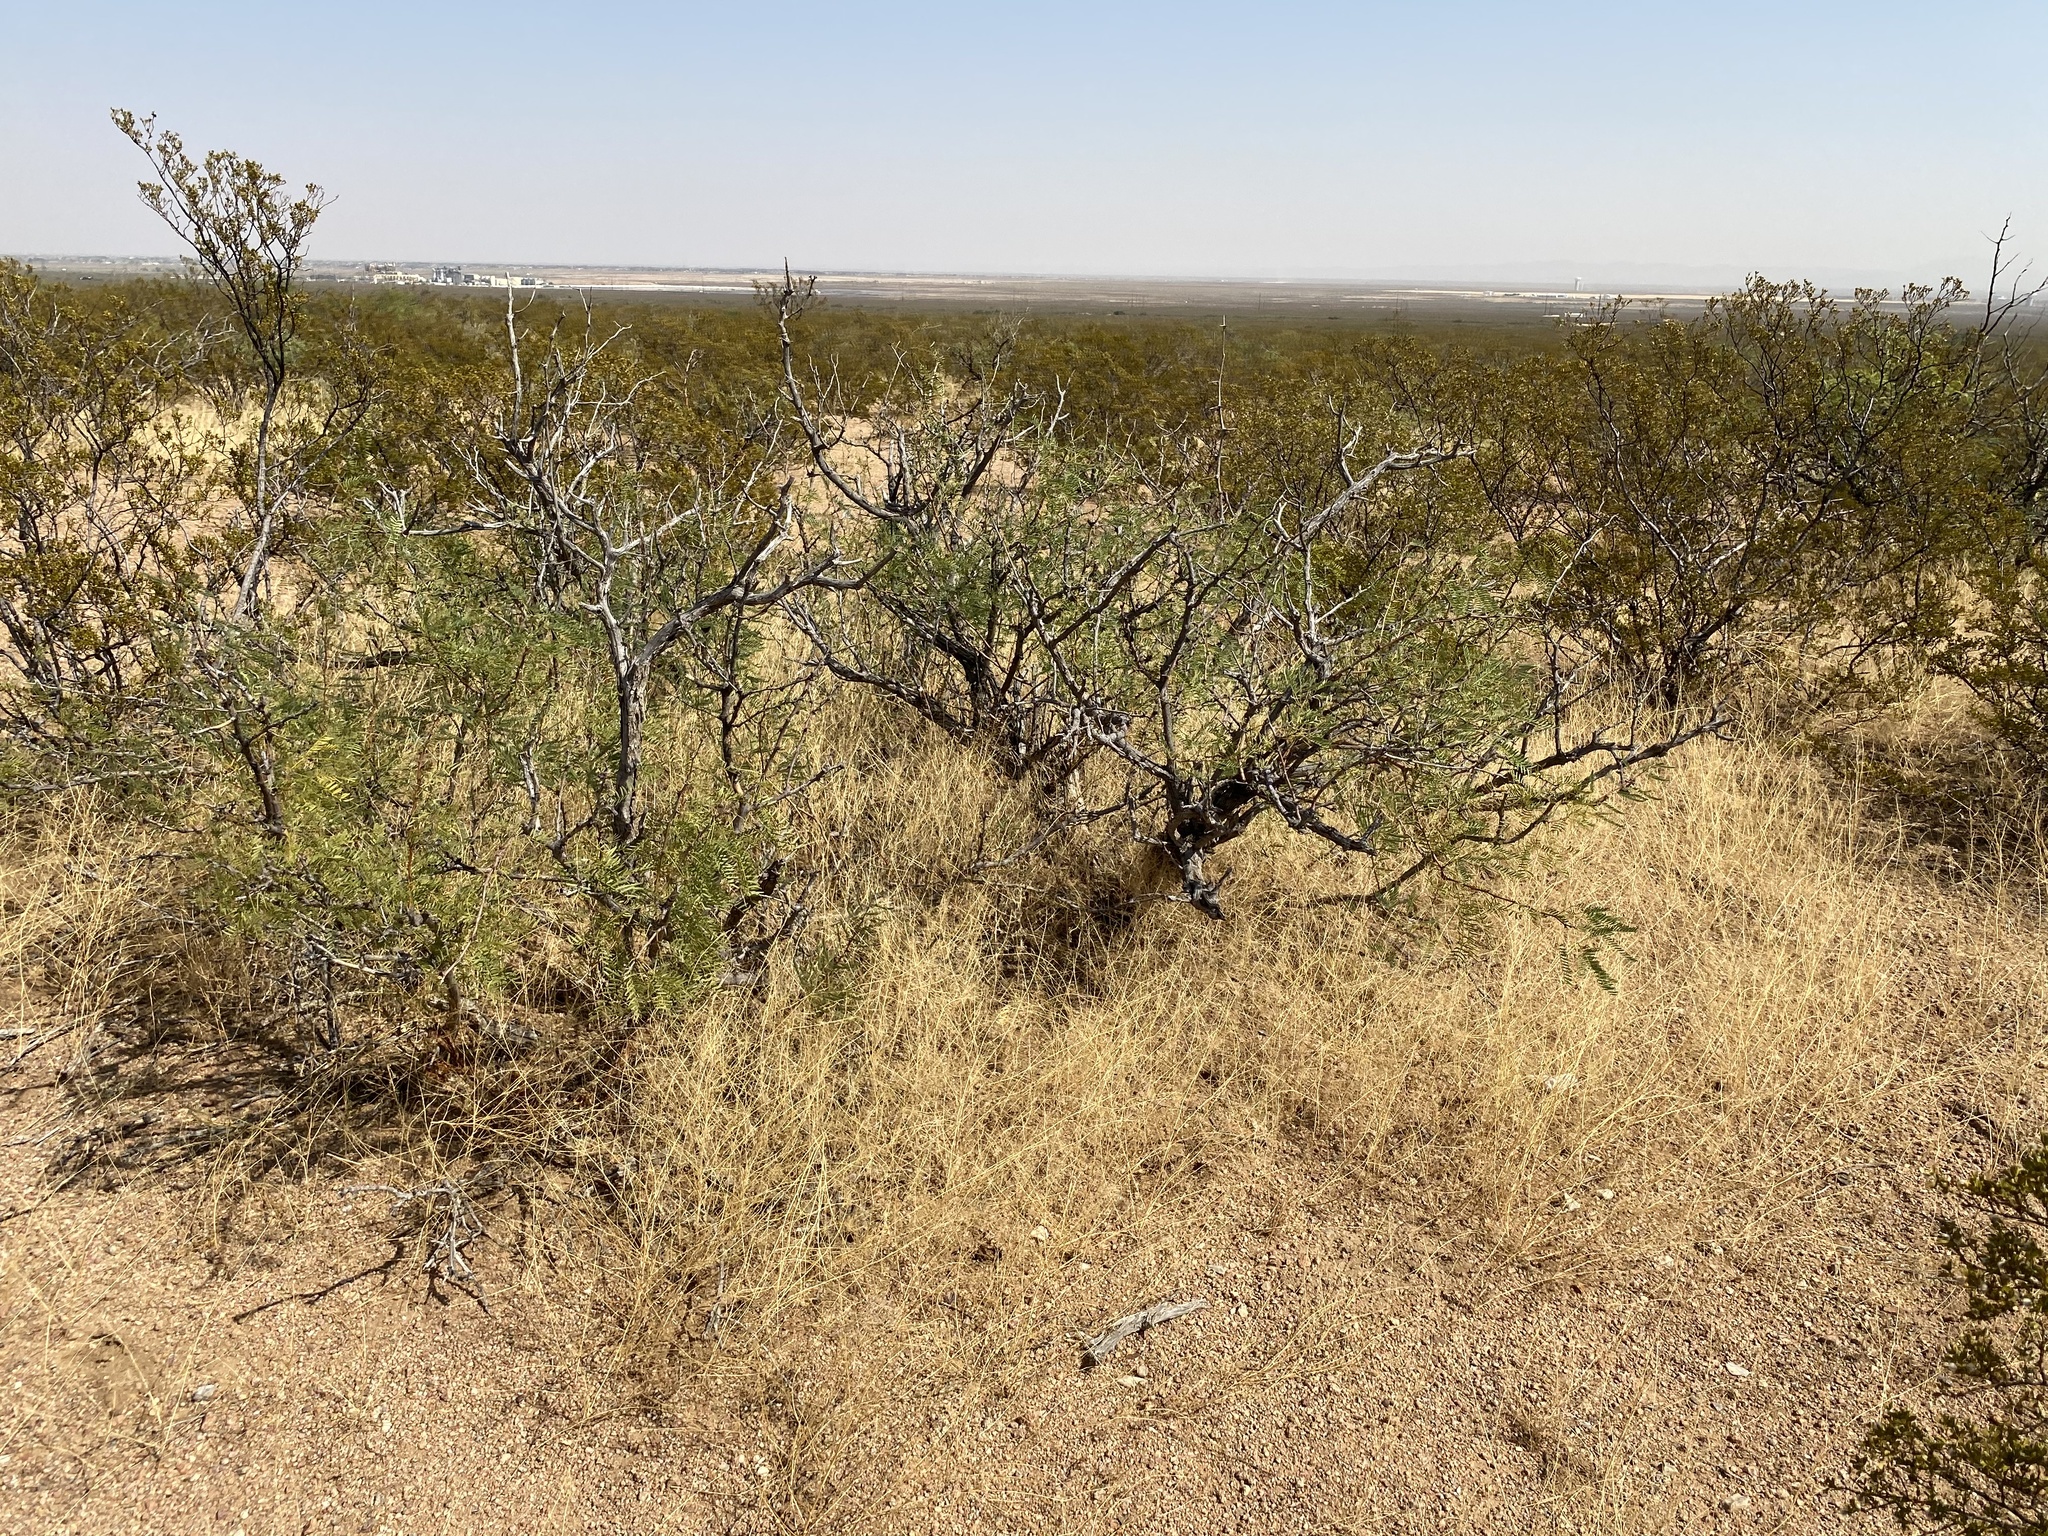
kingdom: Plantae
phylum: Tracheophyta
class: Magnoliopsida
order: Fabales
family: Fabaceae
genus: Prosopis
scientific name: Prosopis glandulosa
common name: Honey mesquite
